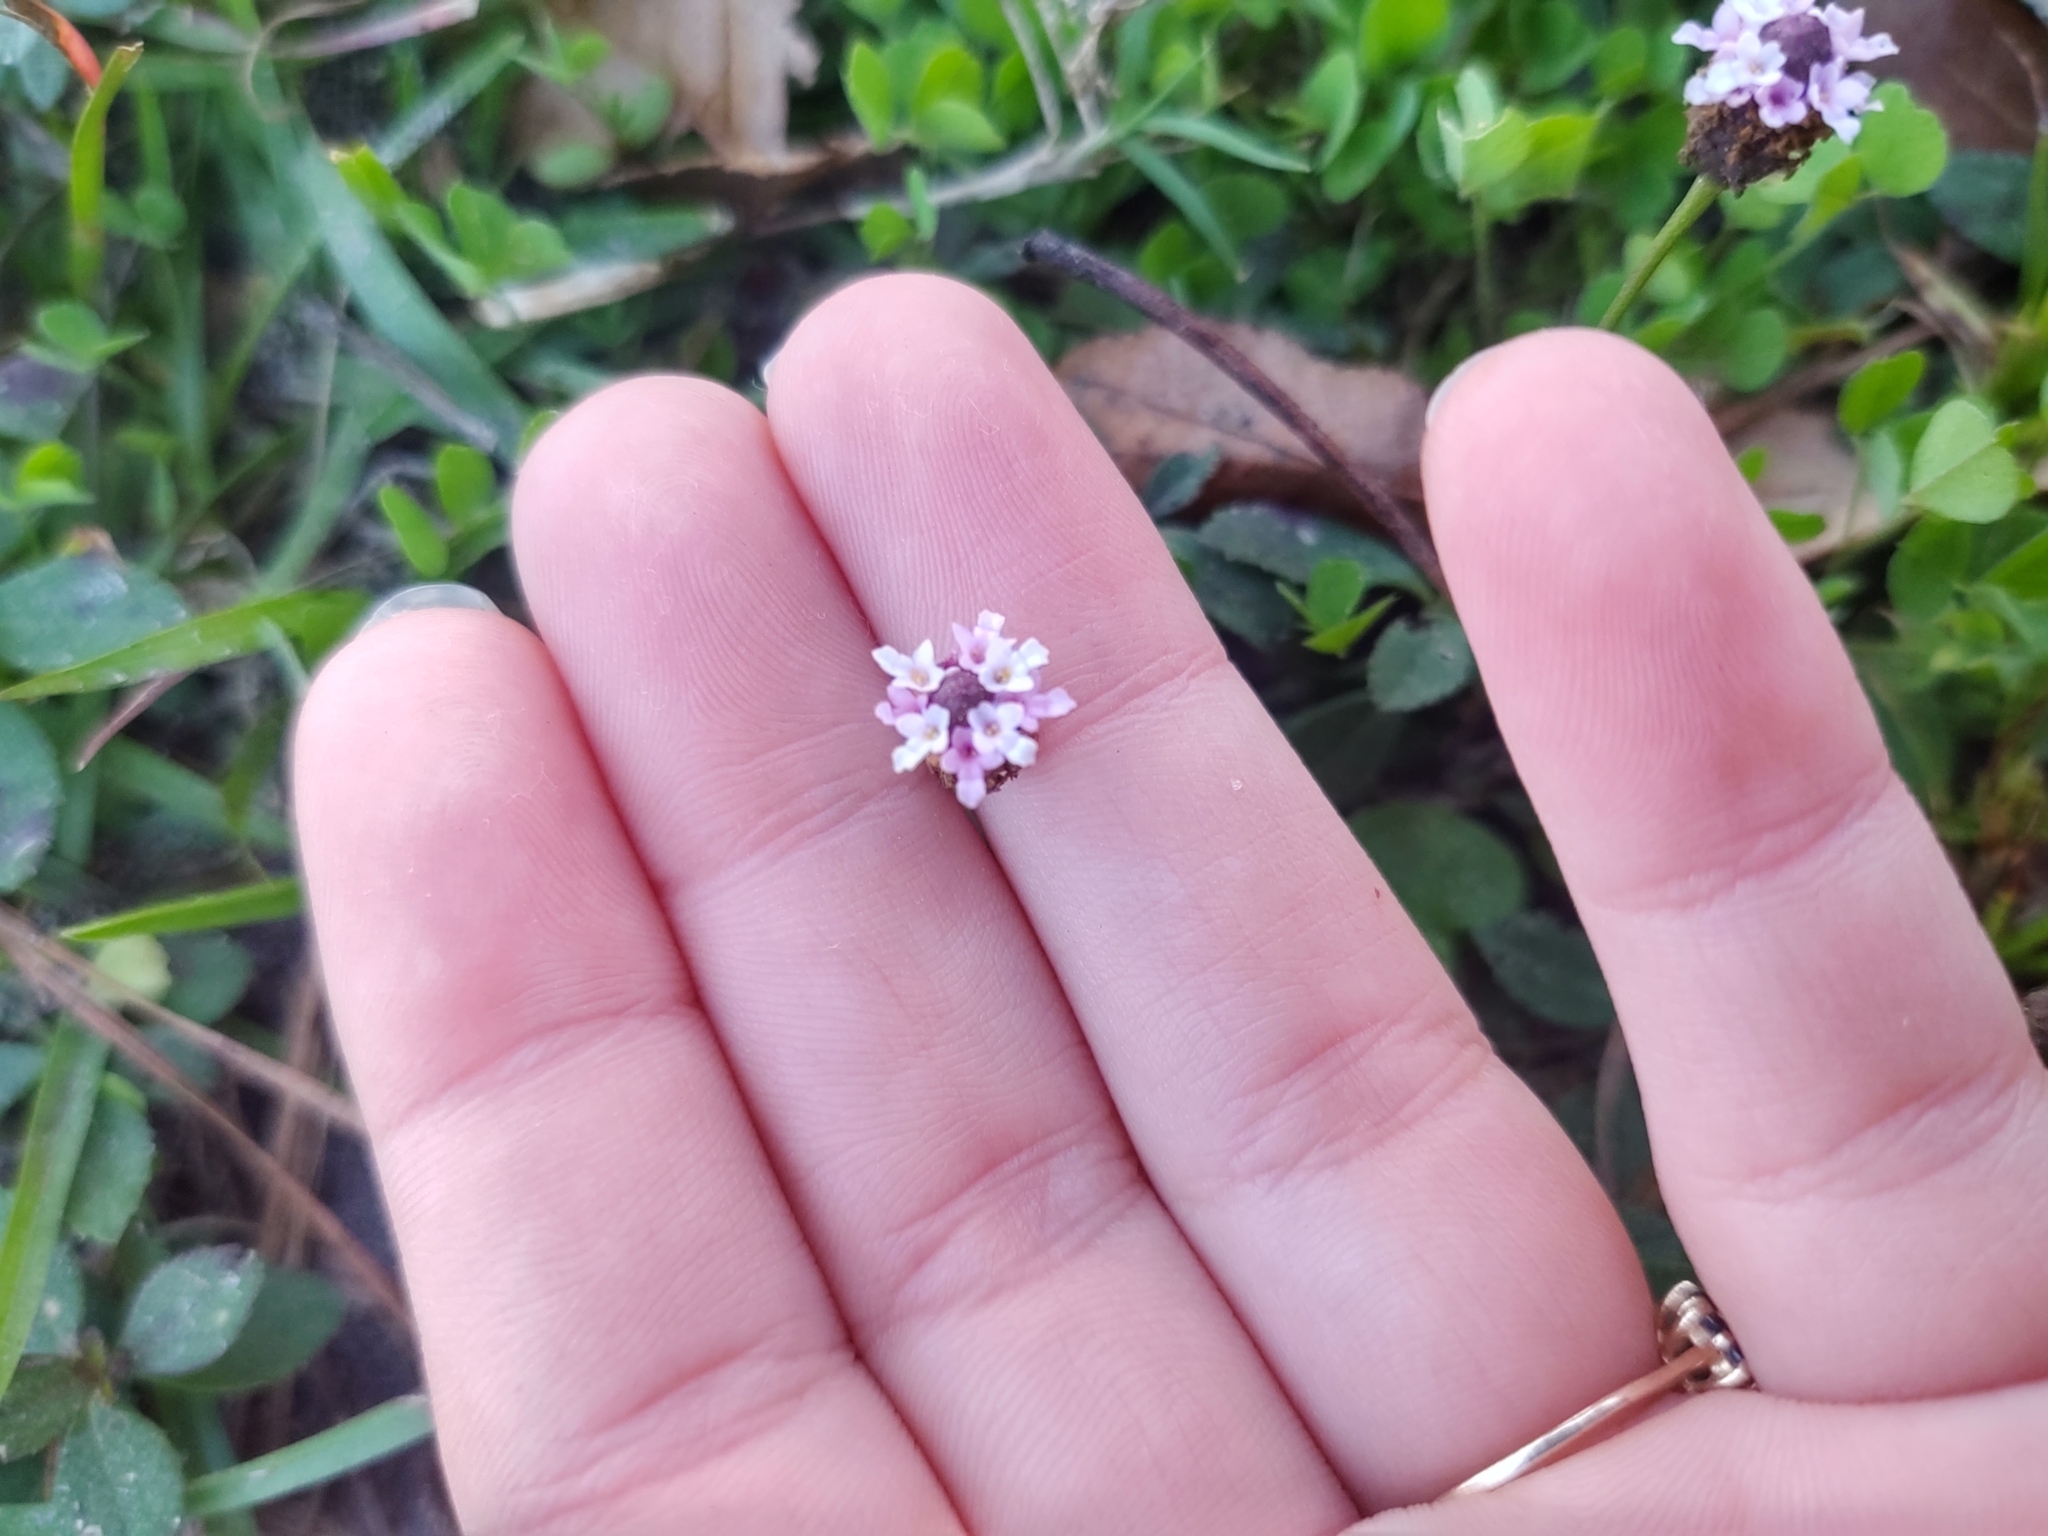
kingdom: Plantae
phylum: Tracheophyta
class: Magnoliopsida
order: Lamiales
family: Verbenaceae
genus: Phyla
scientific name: Phyla nodiflora
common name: Frogfruit
